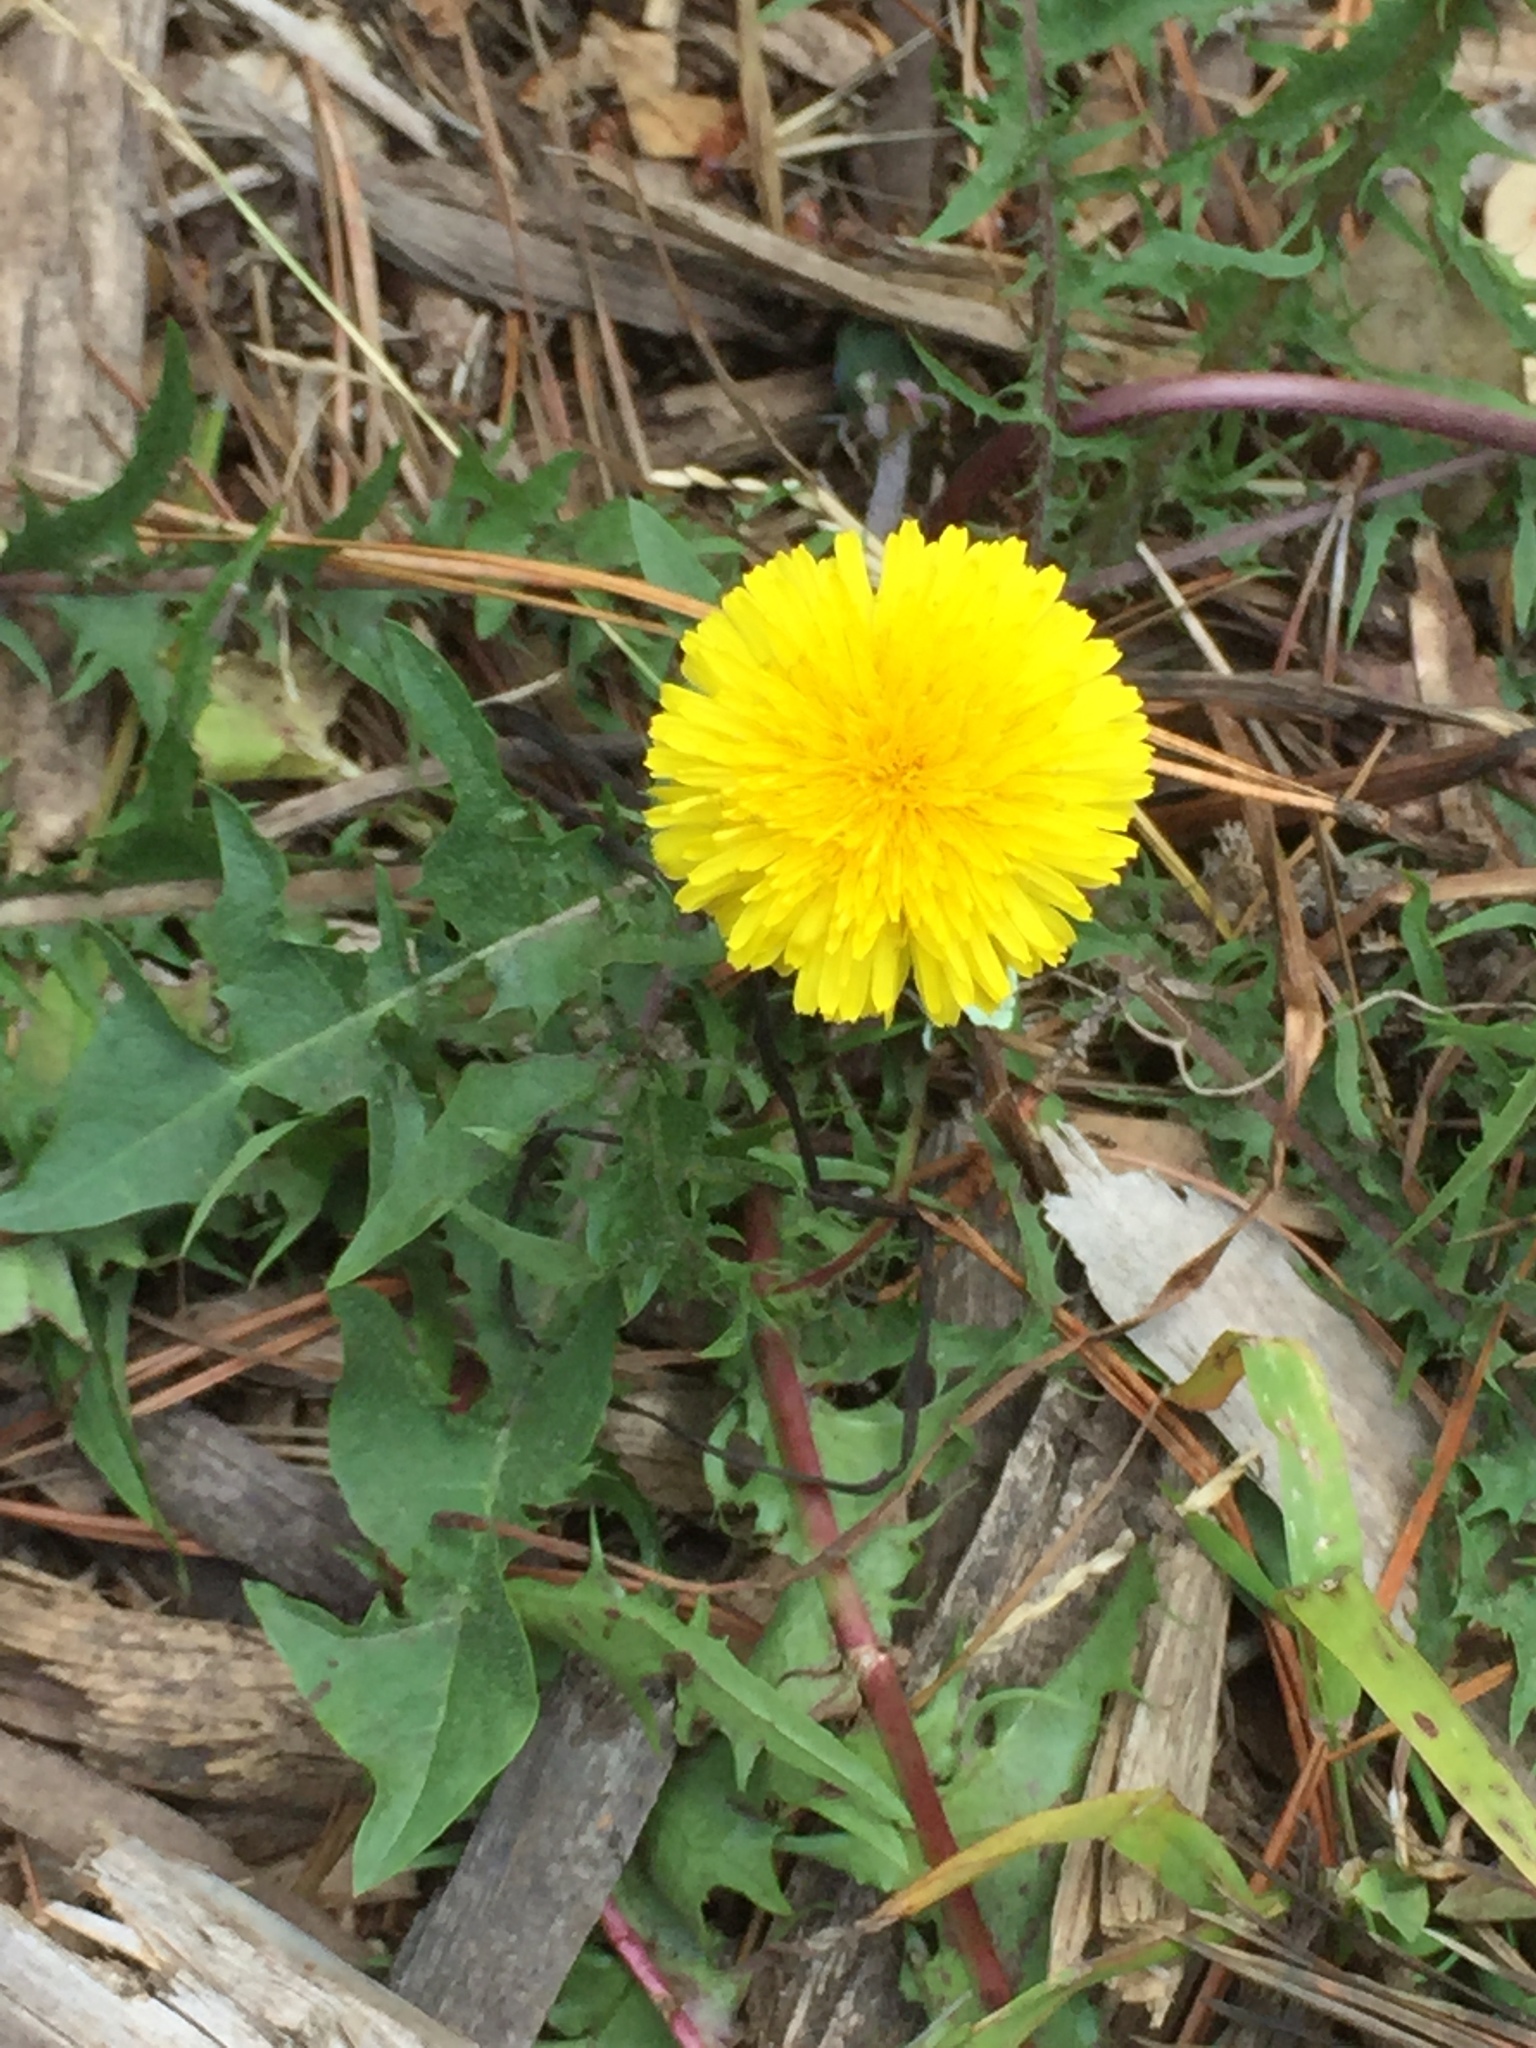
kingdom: Plantae
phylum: Tracheophyta
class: Magnoliopsida
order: Asterales
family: Asteraceae
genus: Taraxacum
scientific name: Taraxacum officinale
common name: Common dandelion
